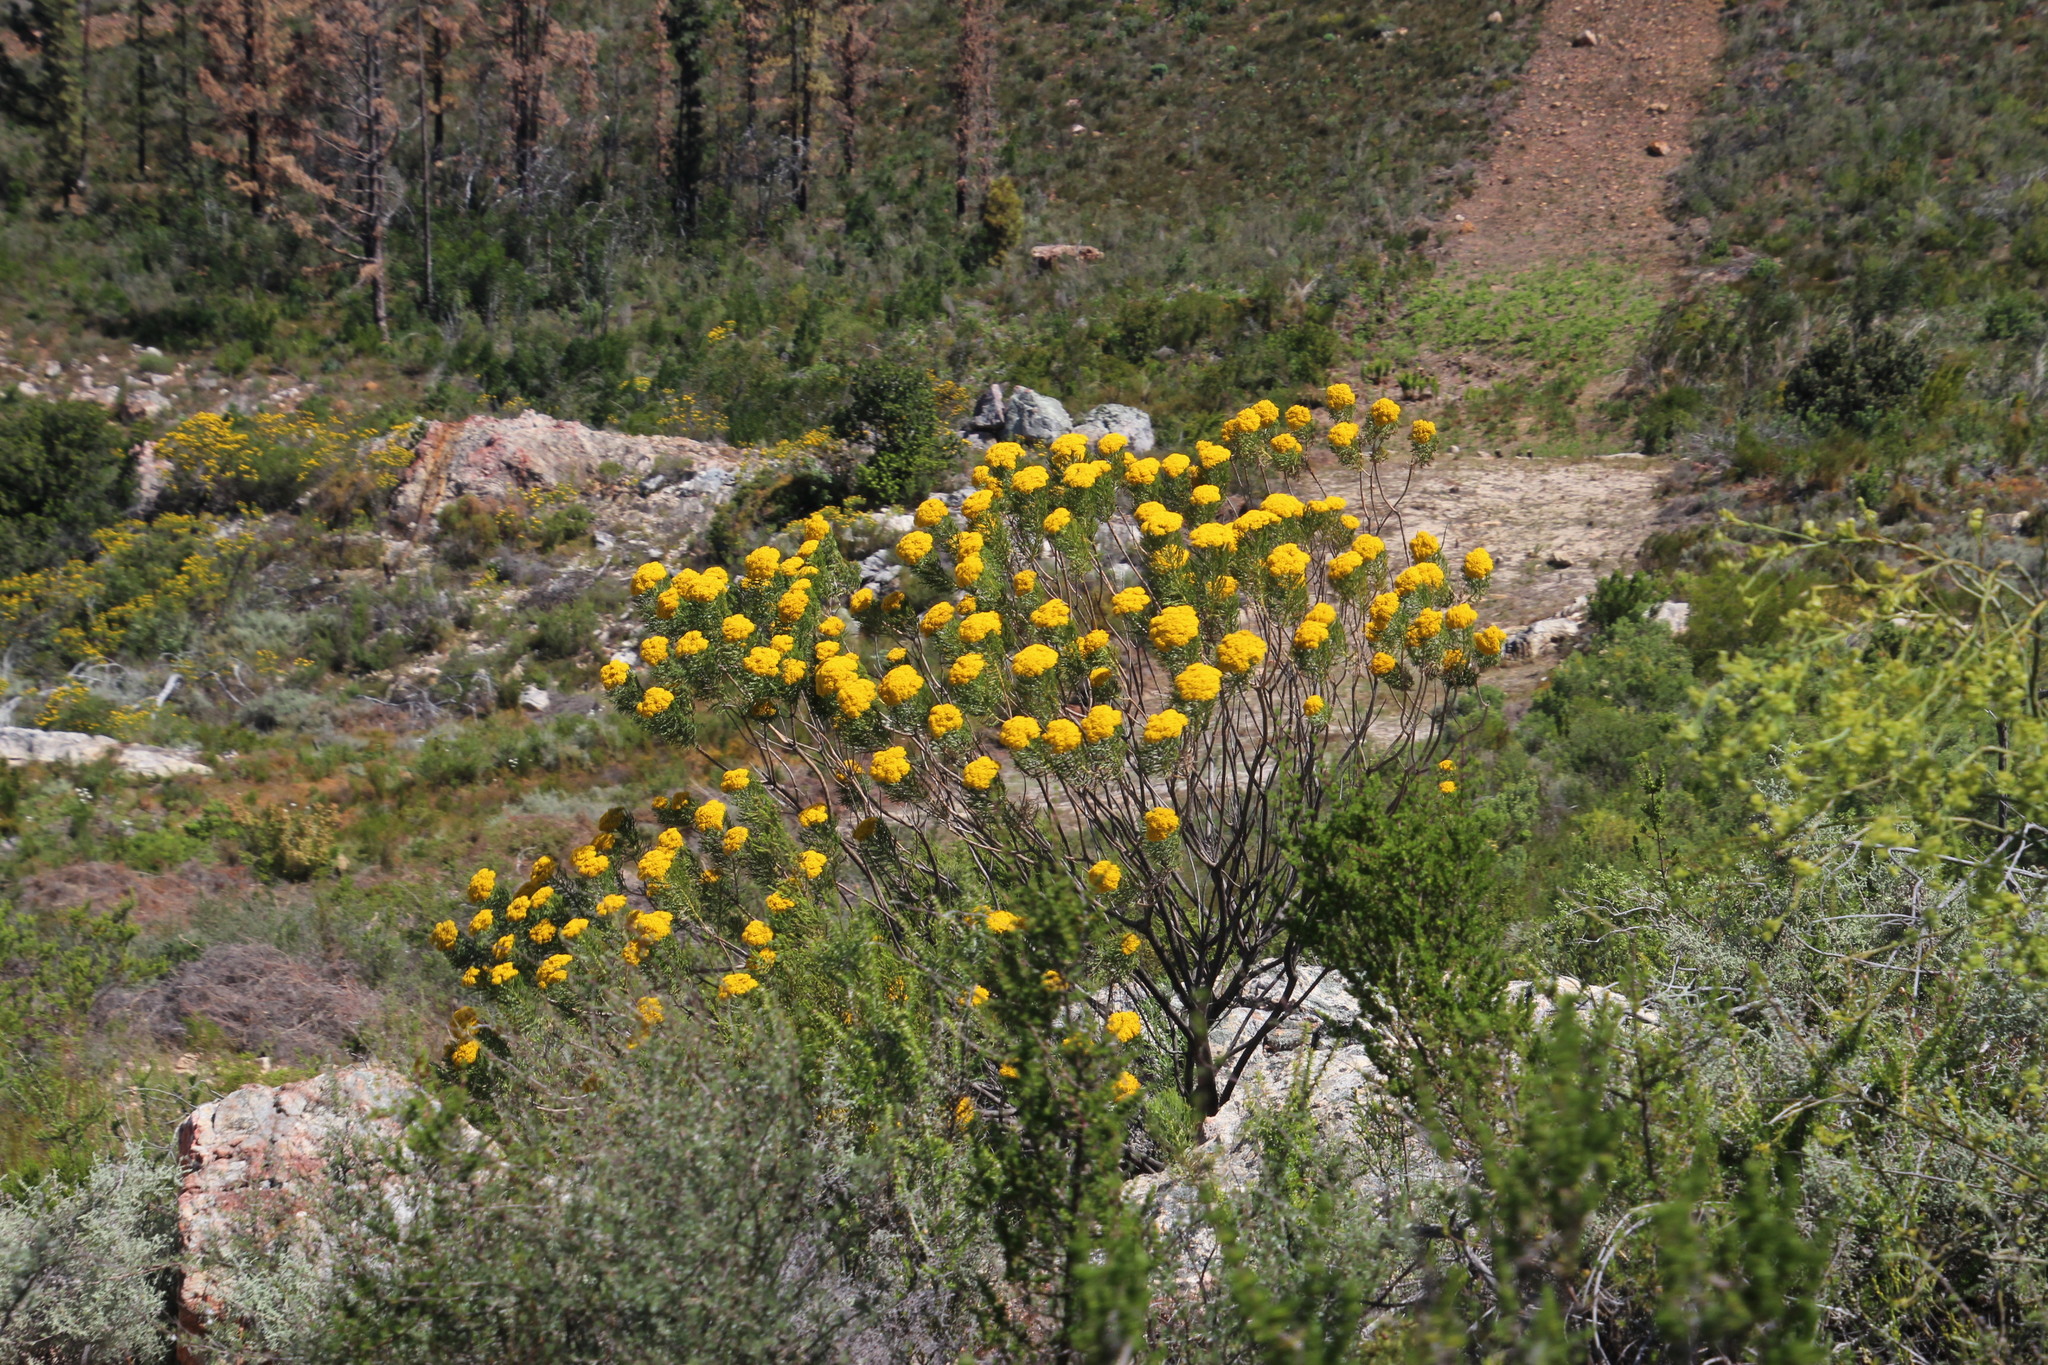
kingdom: Plantae
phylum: Tracheophyta
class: Magnoliopsida
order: Asterales
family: Asteraceae
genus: Hymenolepis
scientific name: Hymenolepis crithmifolia
